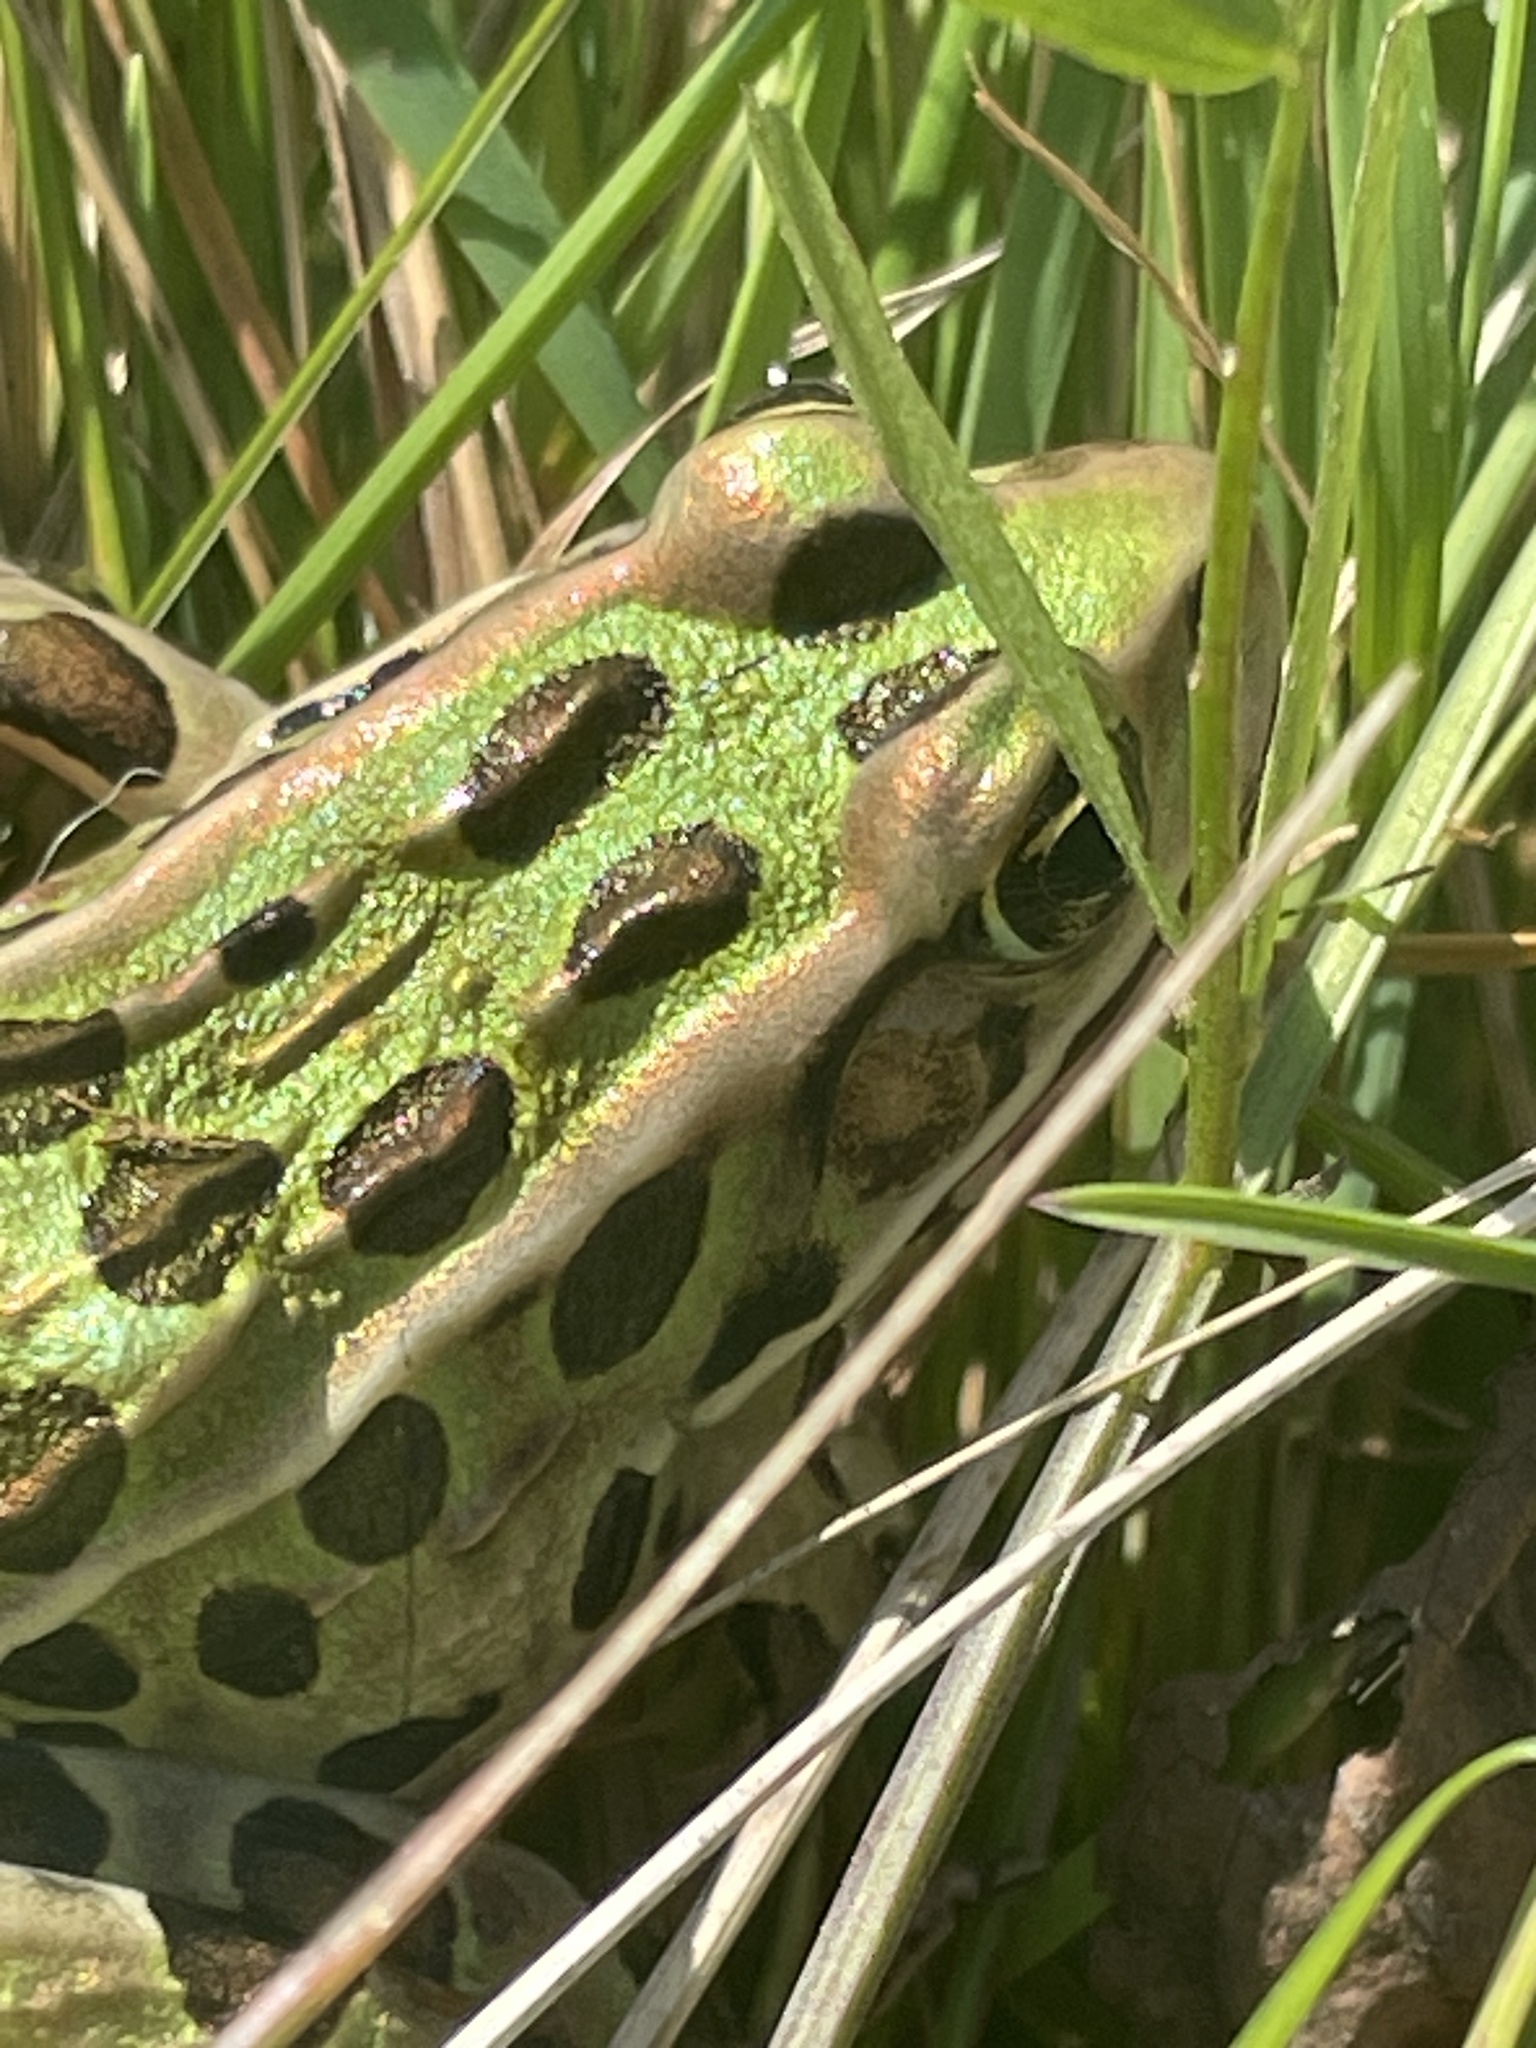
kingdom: Animalia
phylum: Chordata
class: Amphibia
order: Anura
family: Ranidae
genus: Lithobates
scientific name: Lithobates pipiens
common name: Northern leopard frog
